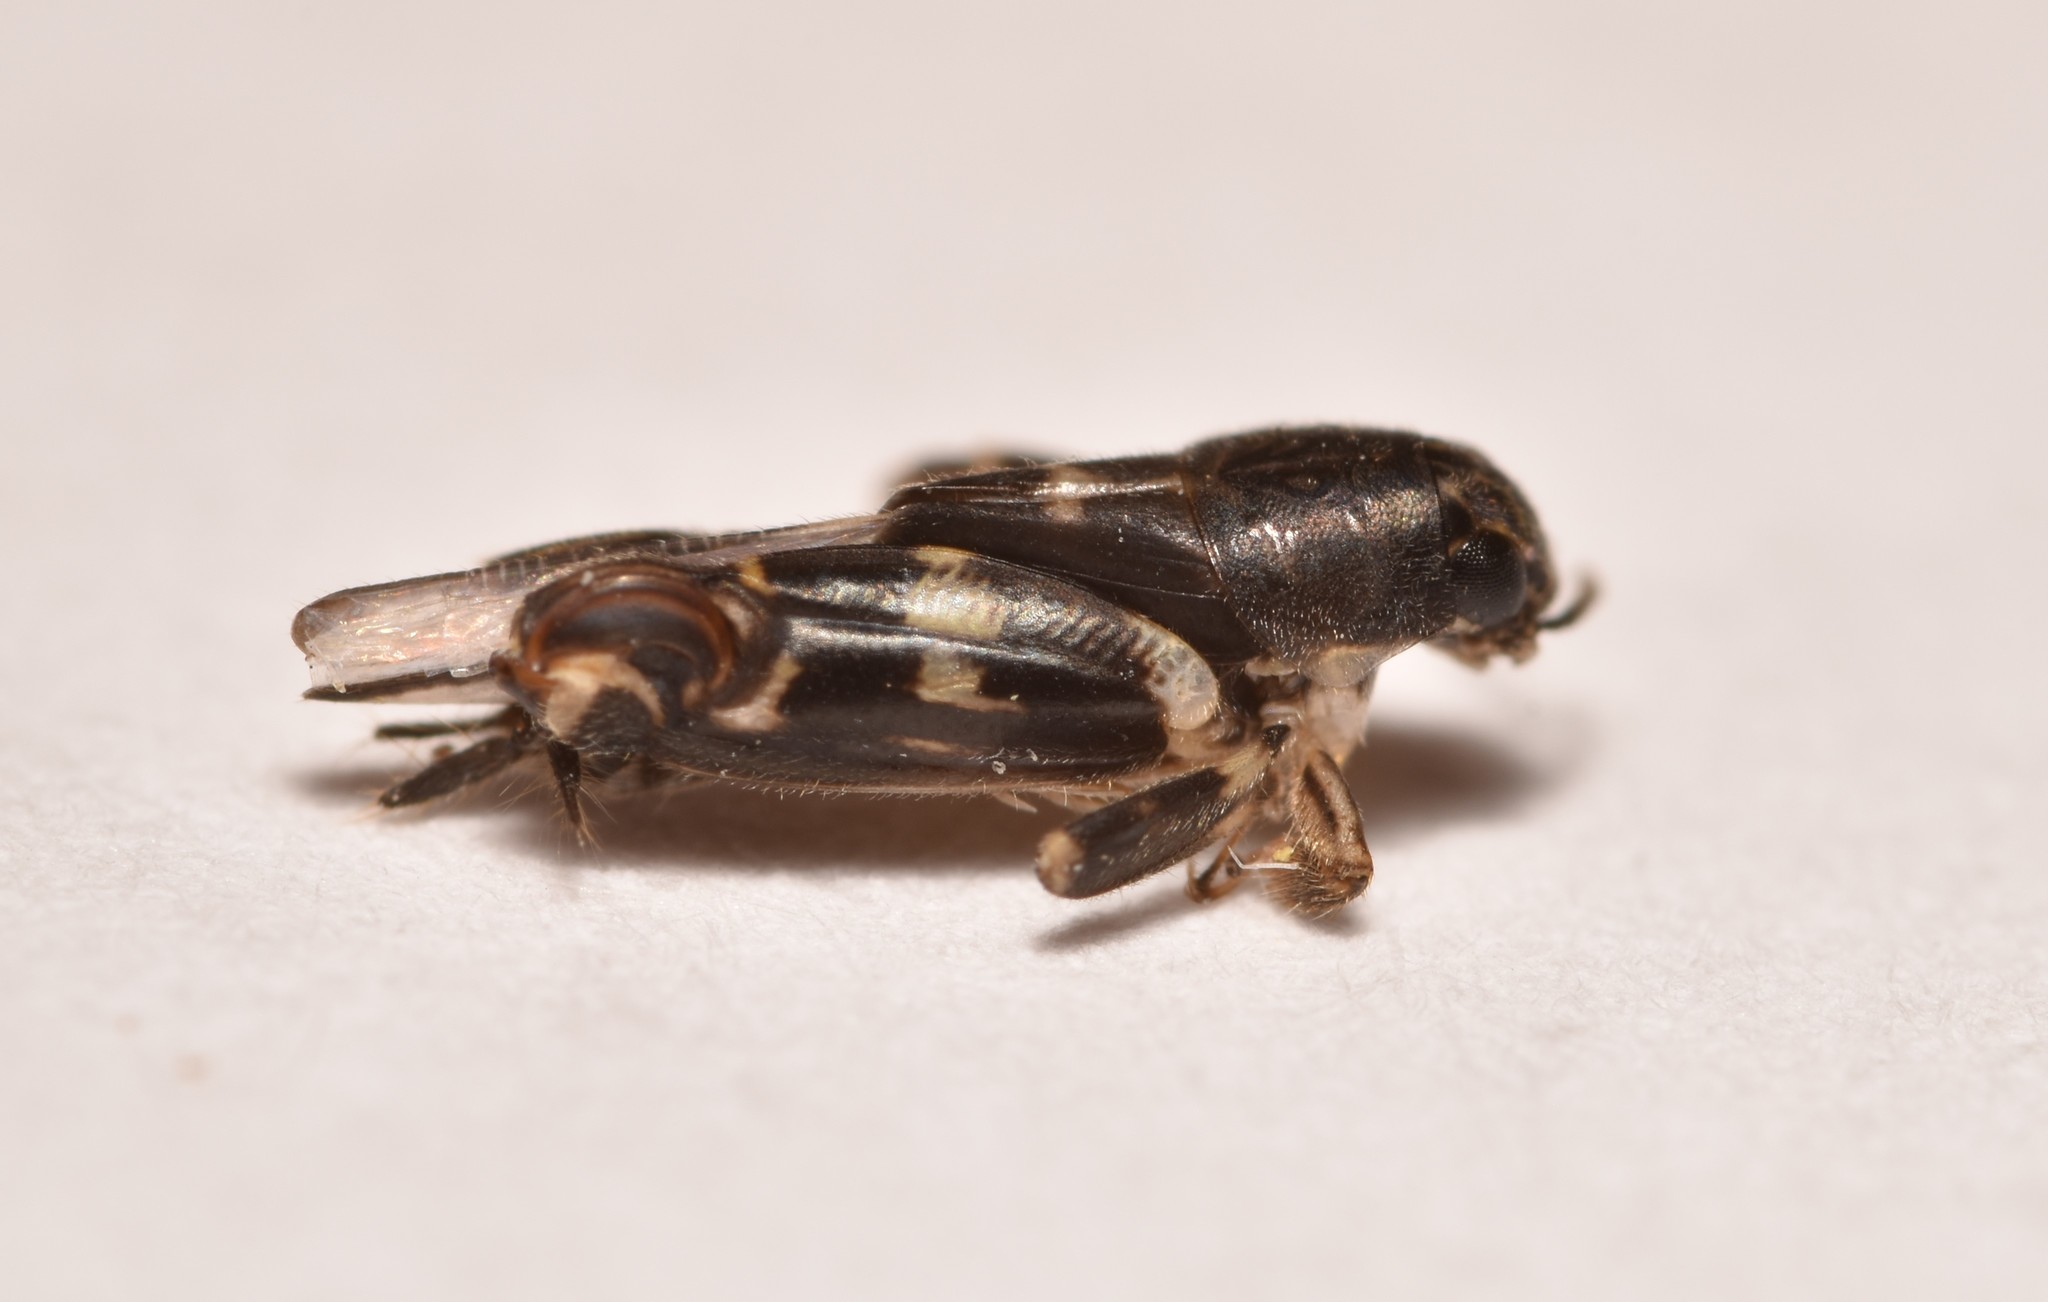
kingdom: Animalia
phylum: Arthropoda
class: Insecta
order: Orthoptera
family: Tridactylidae
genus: Ellipes
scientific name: Ellipes minuta
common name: Minute pygmy locust
